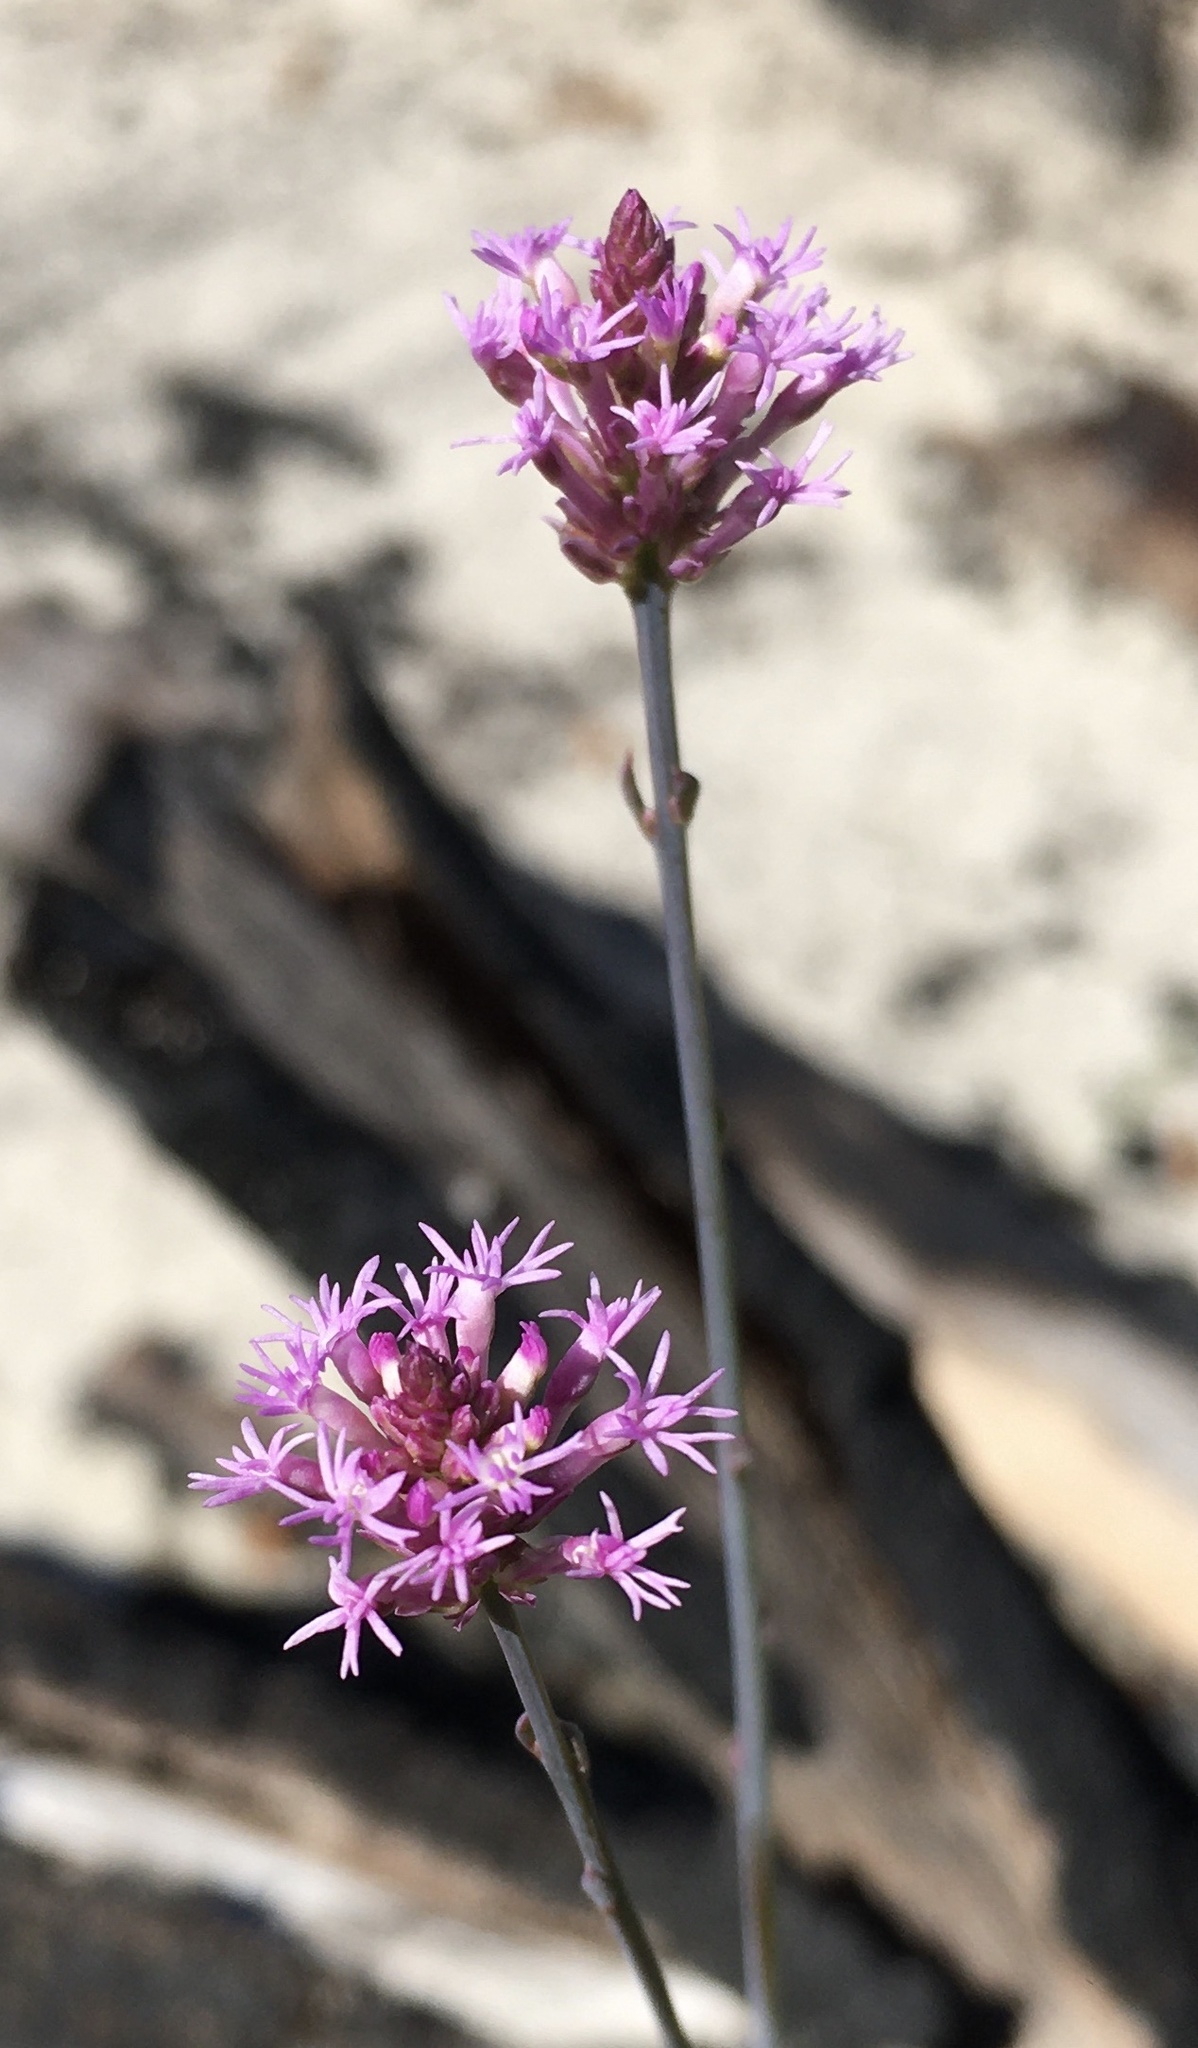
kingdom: Plantae
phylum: Tracheophyta
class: Magnoliopsida
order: Fabales
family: Polygalaceae
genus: Polygala
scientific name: Polygala incarnata
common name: Pink milkwort
